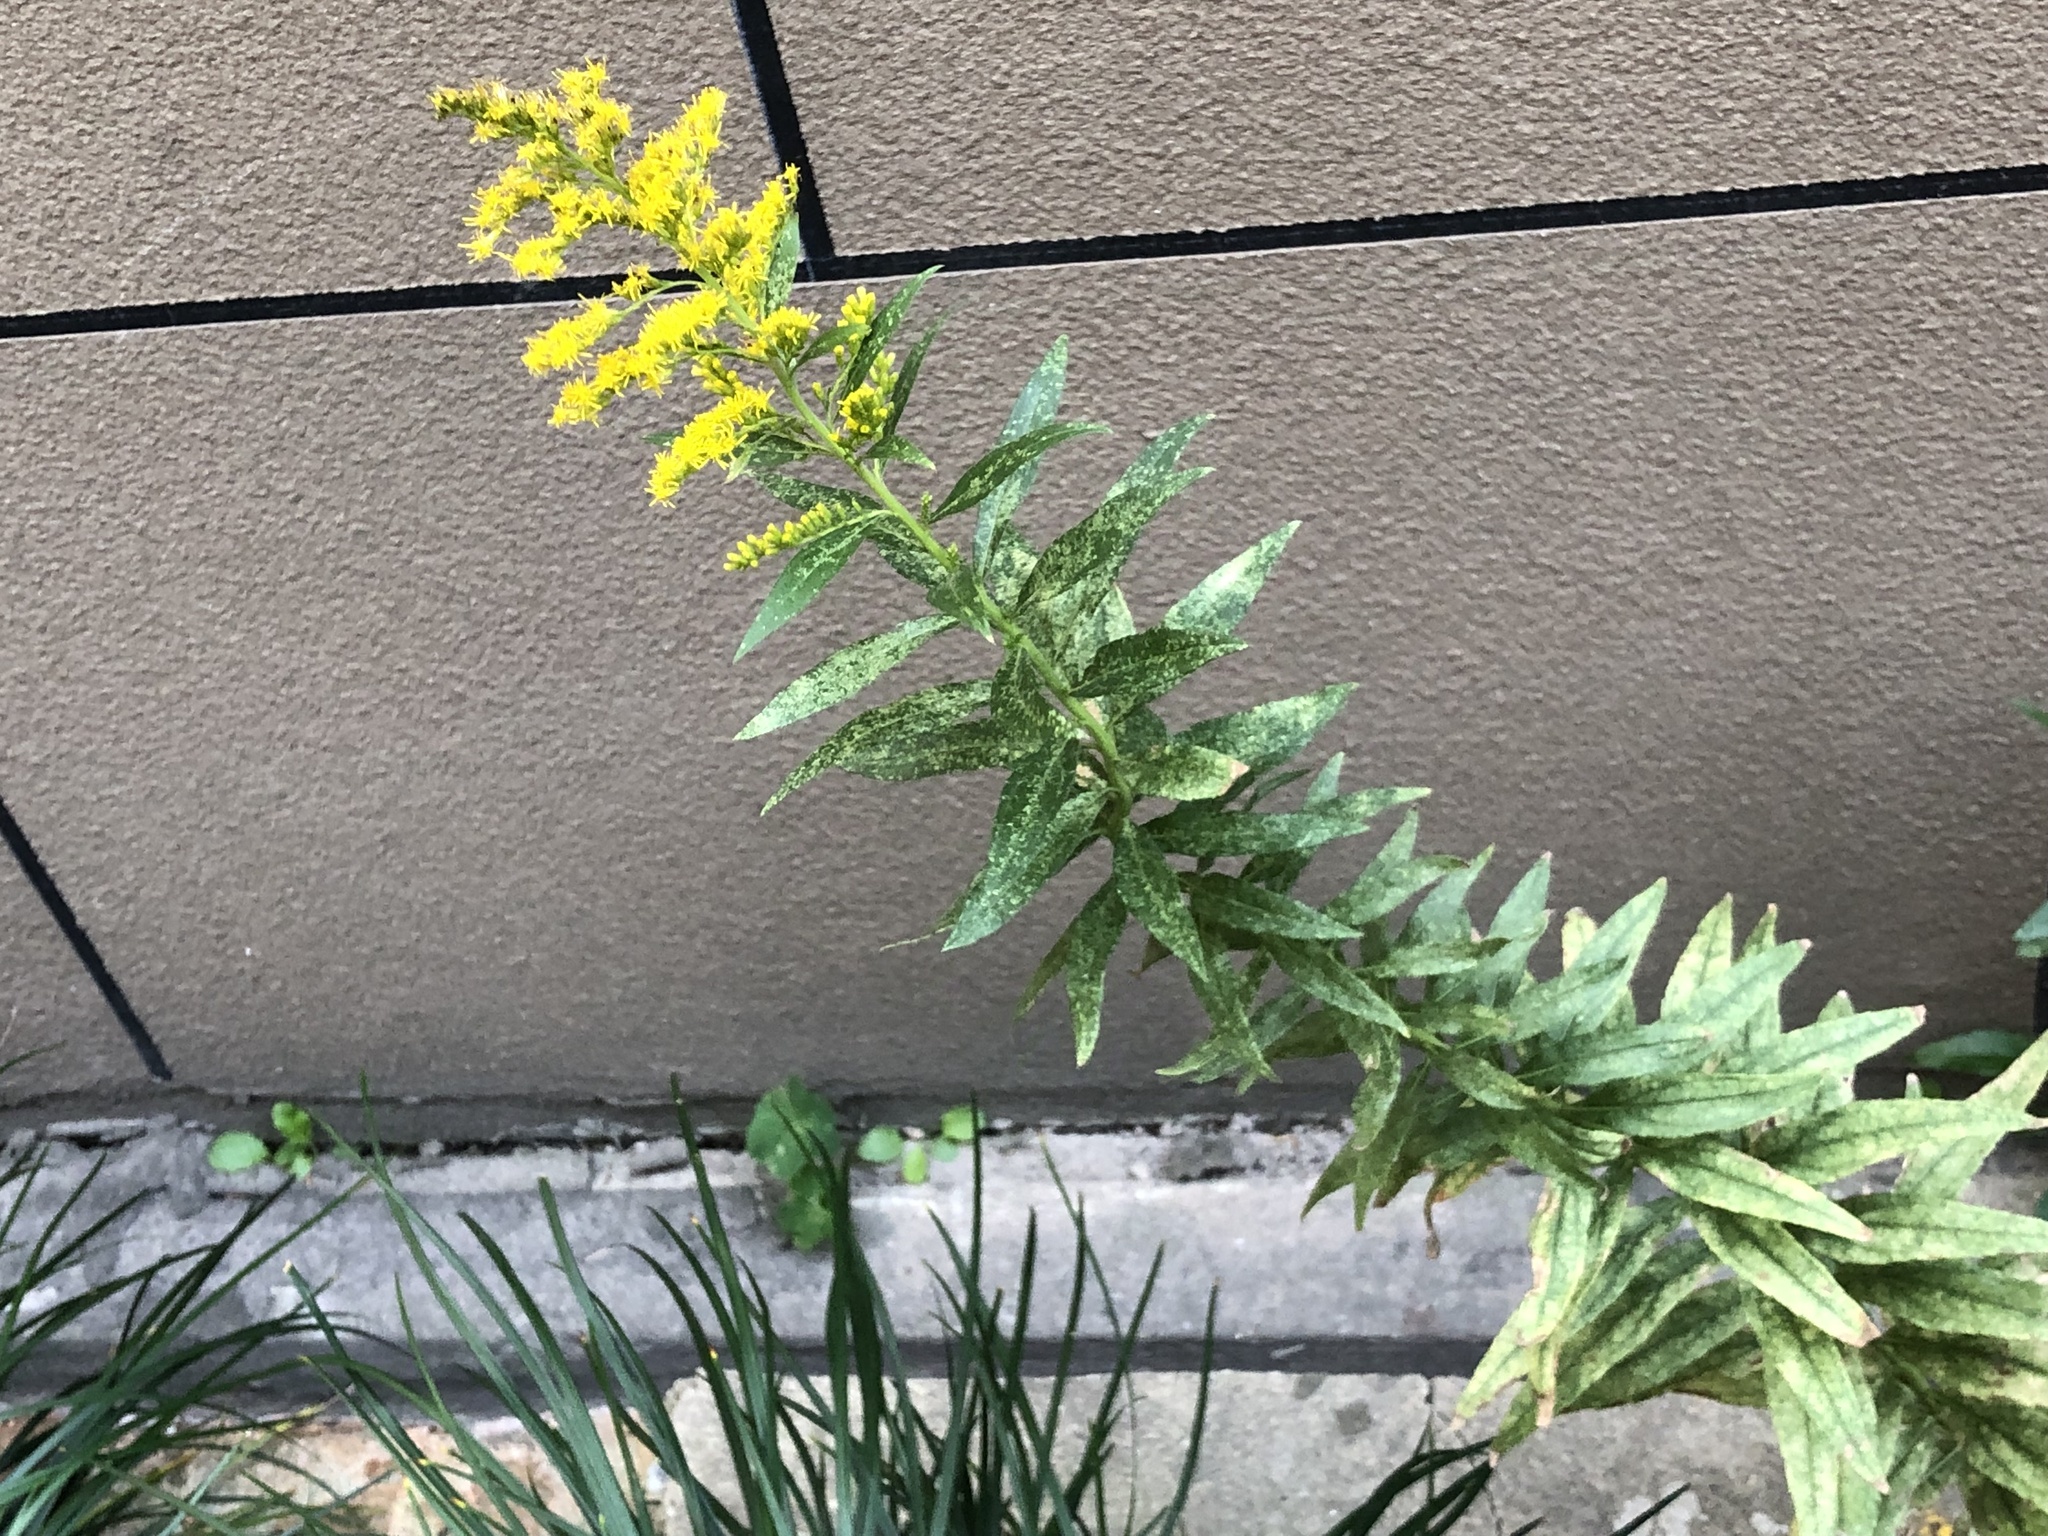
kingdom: Plantae
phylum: Tracheophyta
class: Magnoliopsida
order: Asterales
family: Asteraceae
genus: Solidago
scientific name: Solidago canadensis
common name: Canada goldenrod
